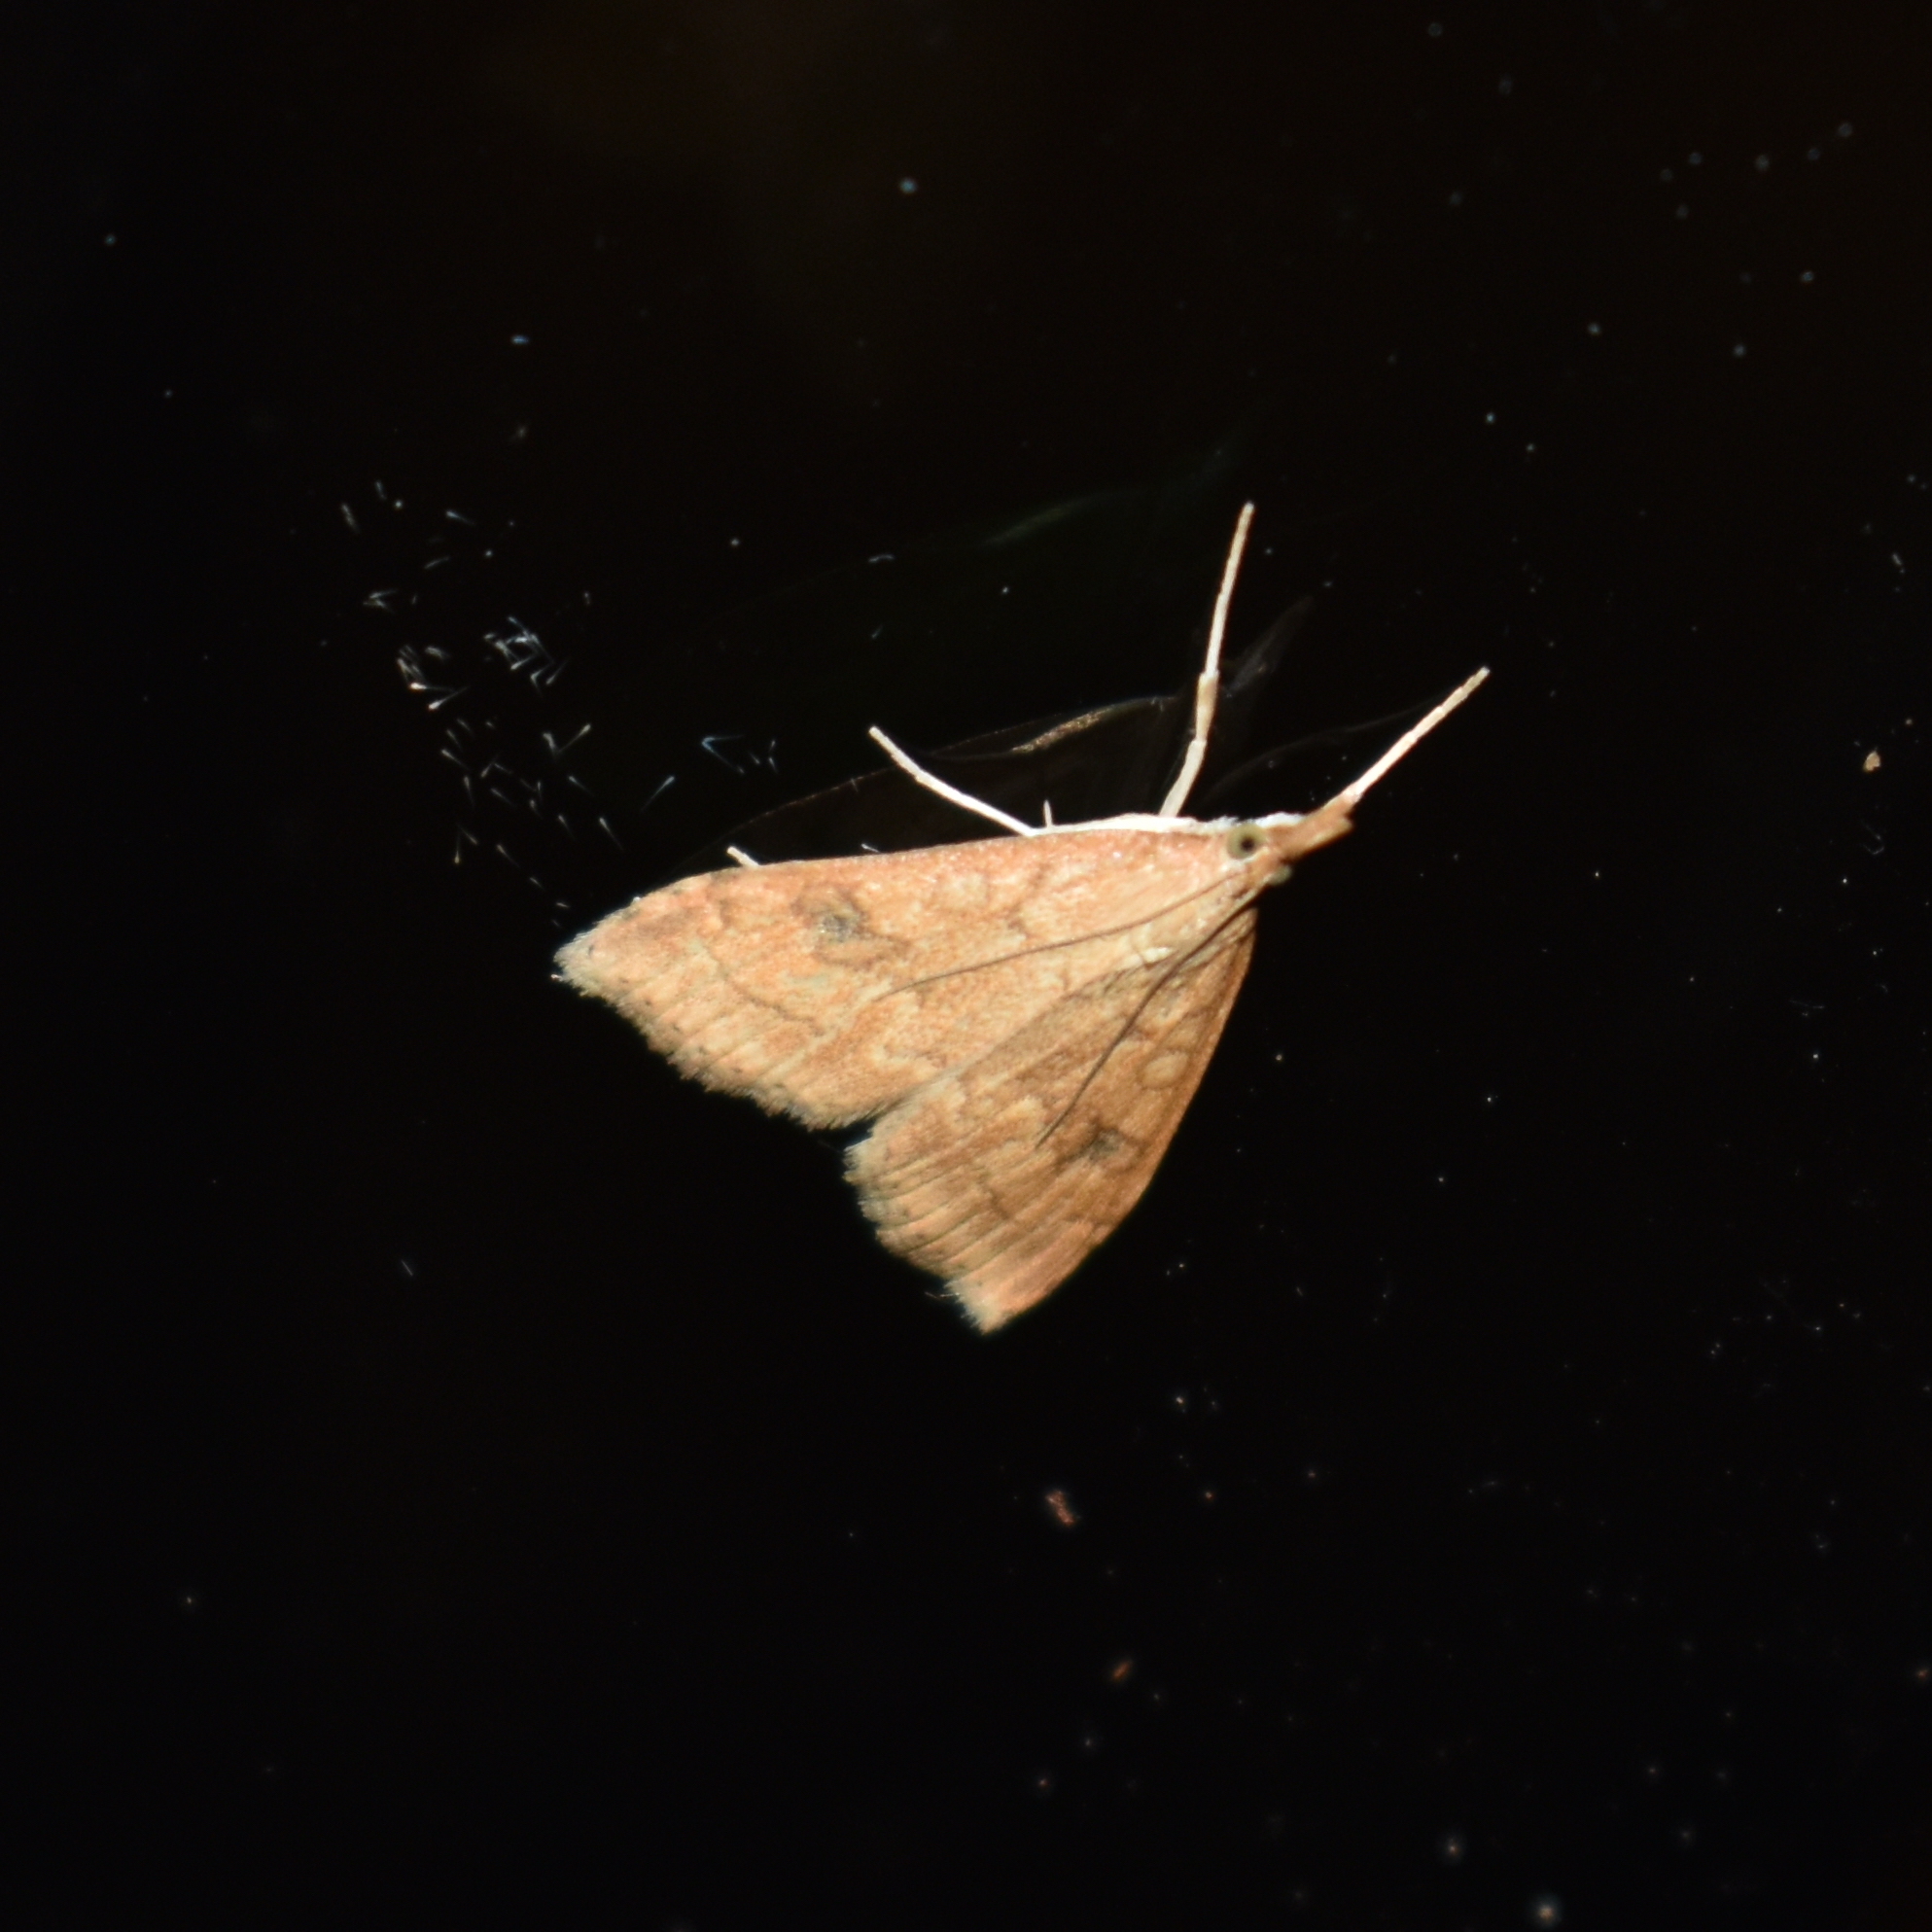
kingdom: Animalia
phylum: Arthropoda
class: Insecta
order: Lepidoptera
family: Crambidae
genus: Udea
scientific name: Udea profundalis
